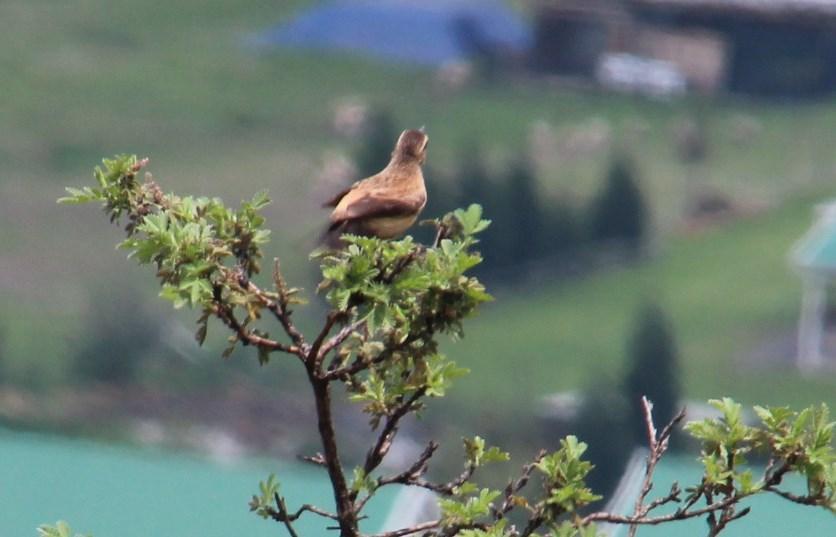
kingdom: Animalia
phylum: Chordata
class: Aves
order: Passeriformes
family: Muscicapidae
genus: Campicoloides
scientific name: Campicoloides bifasciatus
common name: Buff-streaked chat
